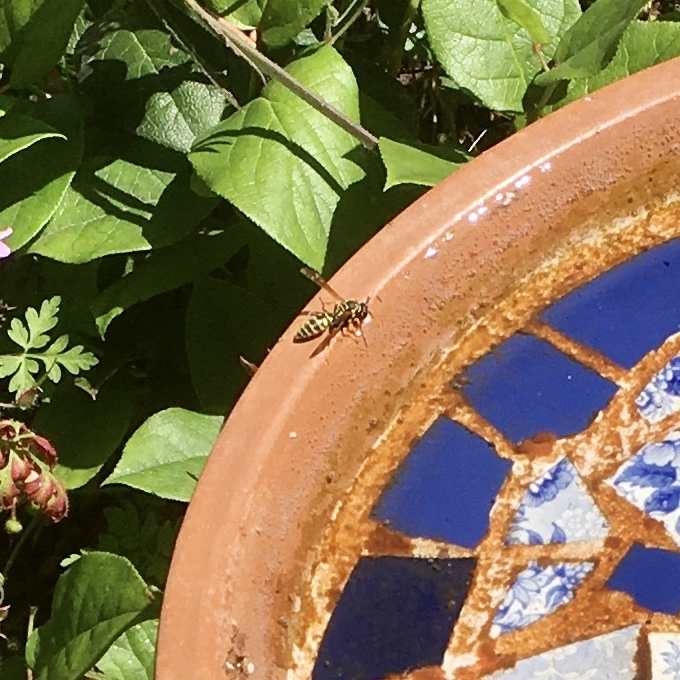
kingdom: Animalia
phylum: Arthropoda
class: Insecta
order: Hymenoptera
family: Eumenidae
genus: Polistes
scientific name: Polistes dominula
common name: Paper wasp
